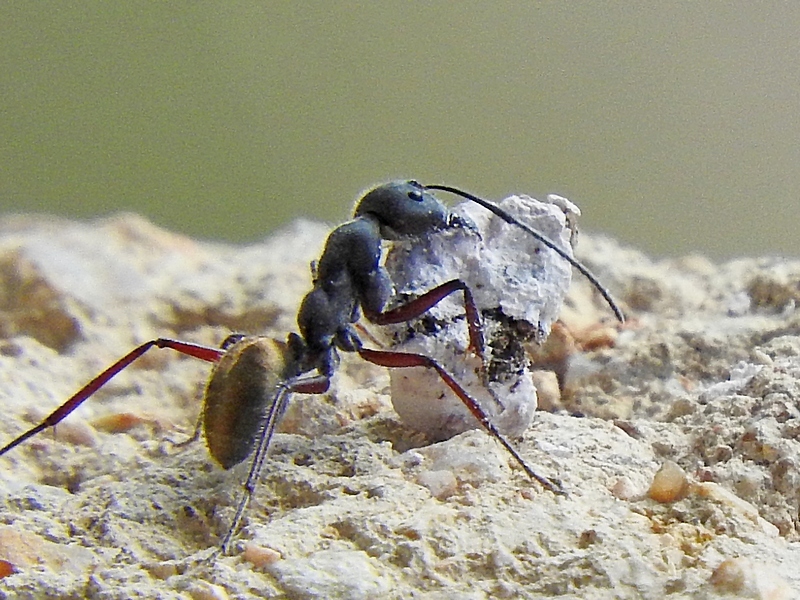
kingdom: Animalia
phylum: Arthropoda
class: Insecta
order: Hymenoptera
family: Formicidae
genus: Camponotus
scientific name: Camponotus suffusus
